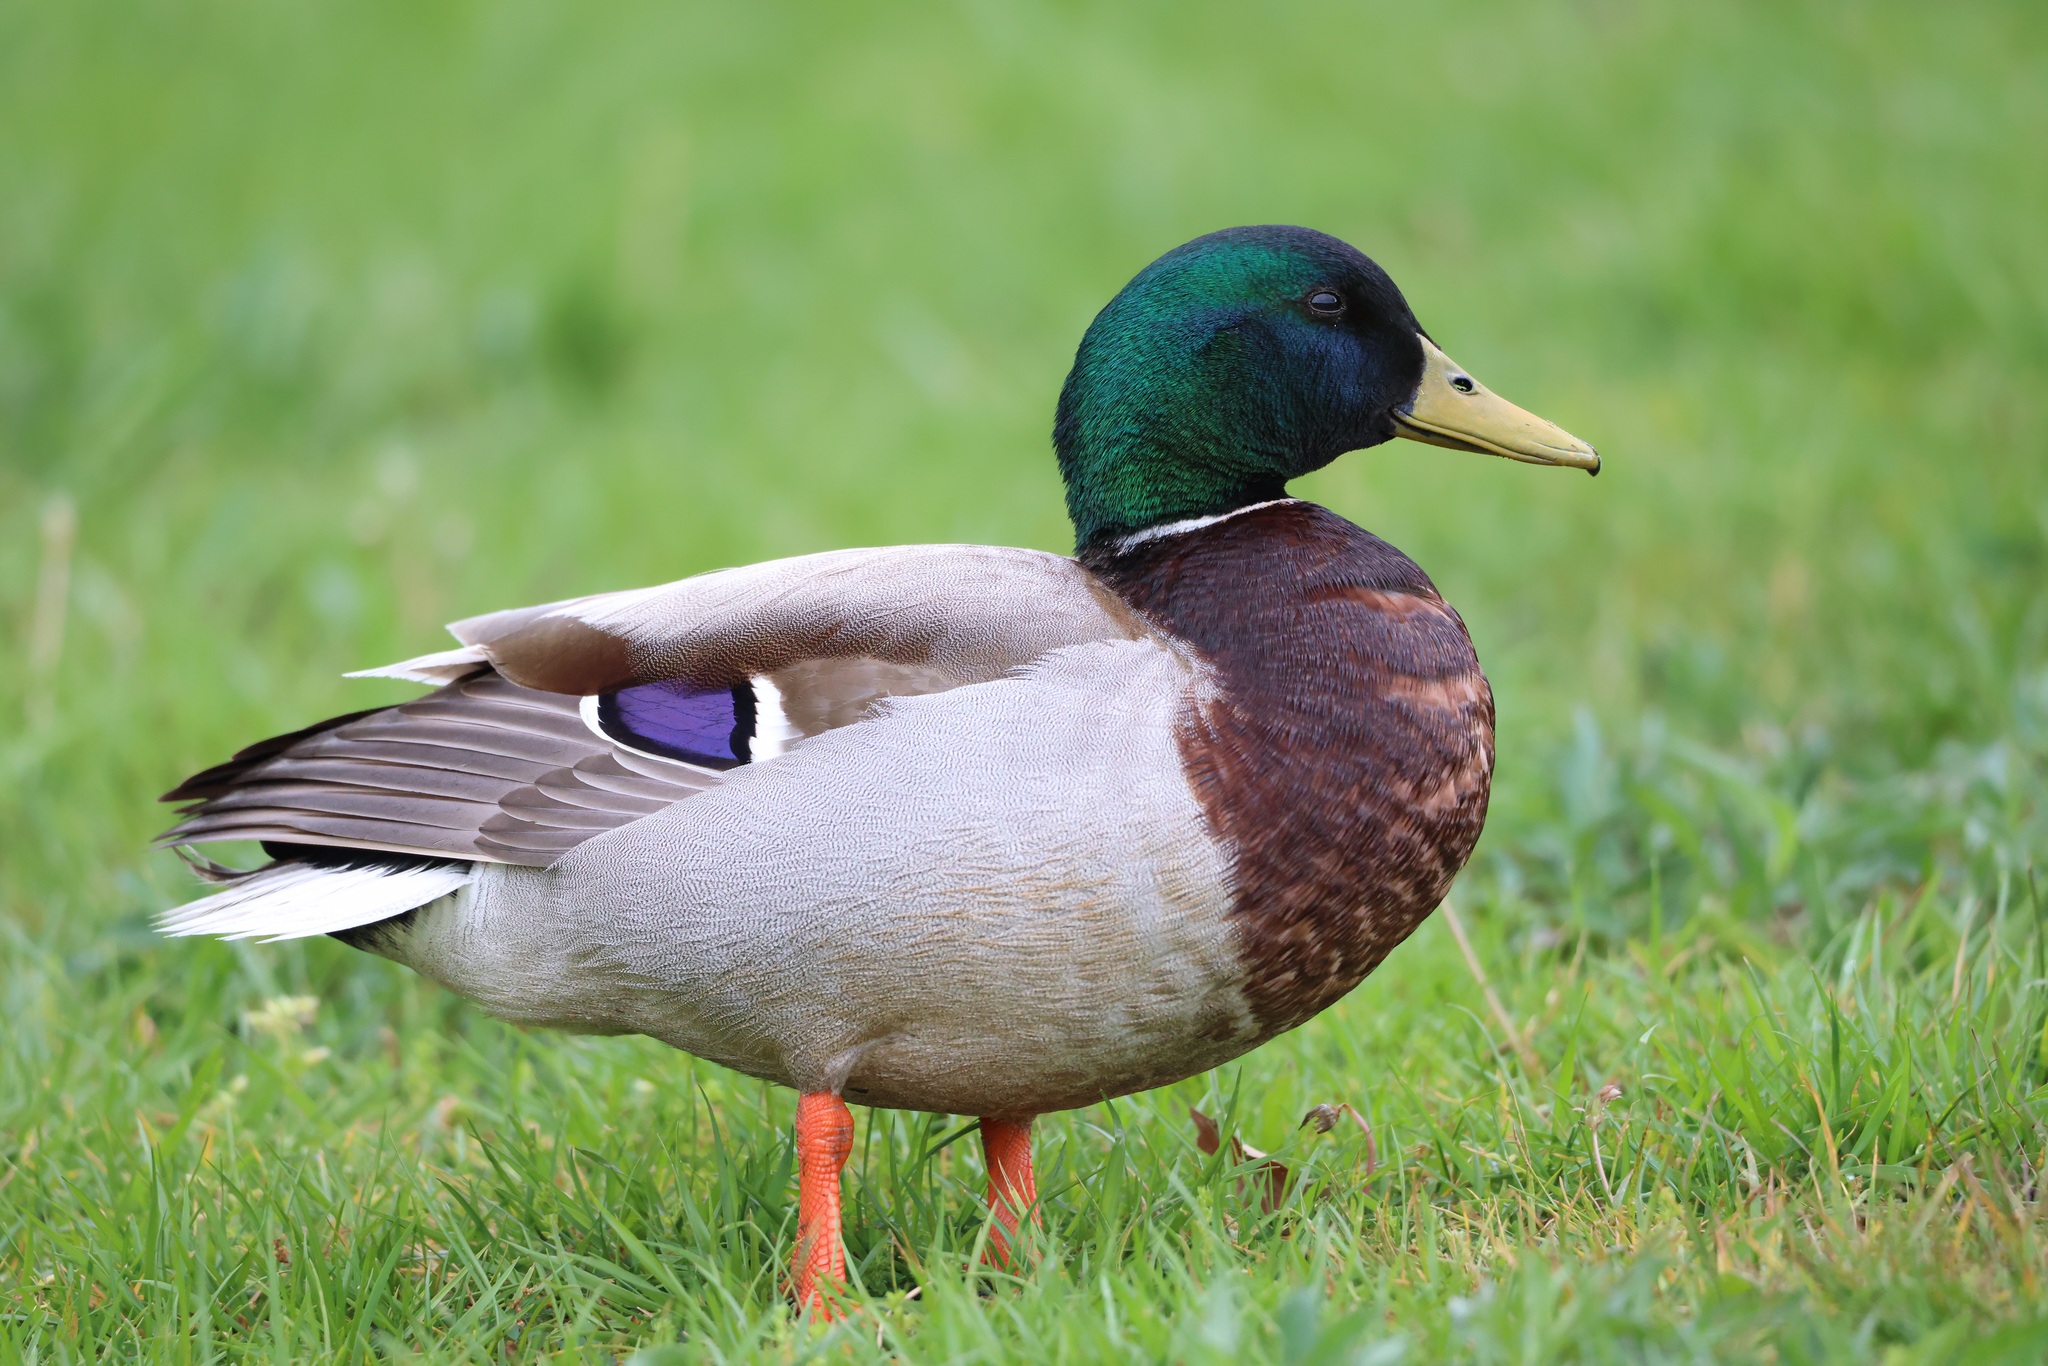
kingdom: Animalia
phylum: Chordata
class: Aves
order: Anseriformes
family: Anatidae
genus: Anas
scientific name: Anas platyrhynchos
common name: Mallard
